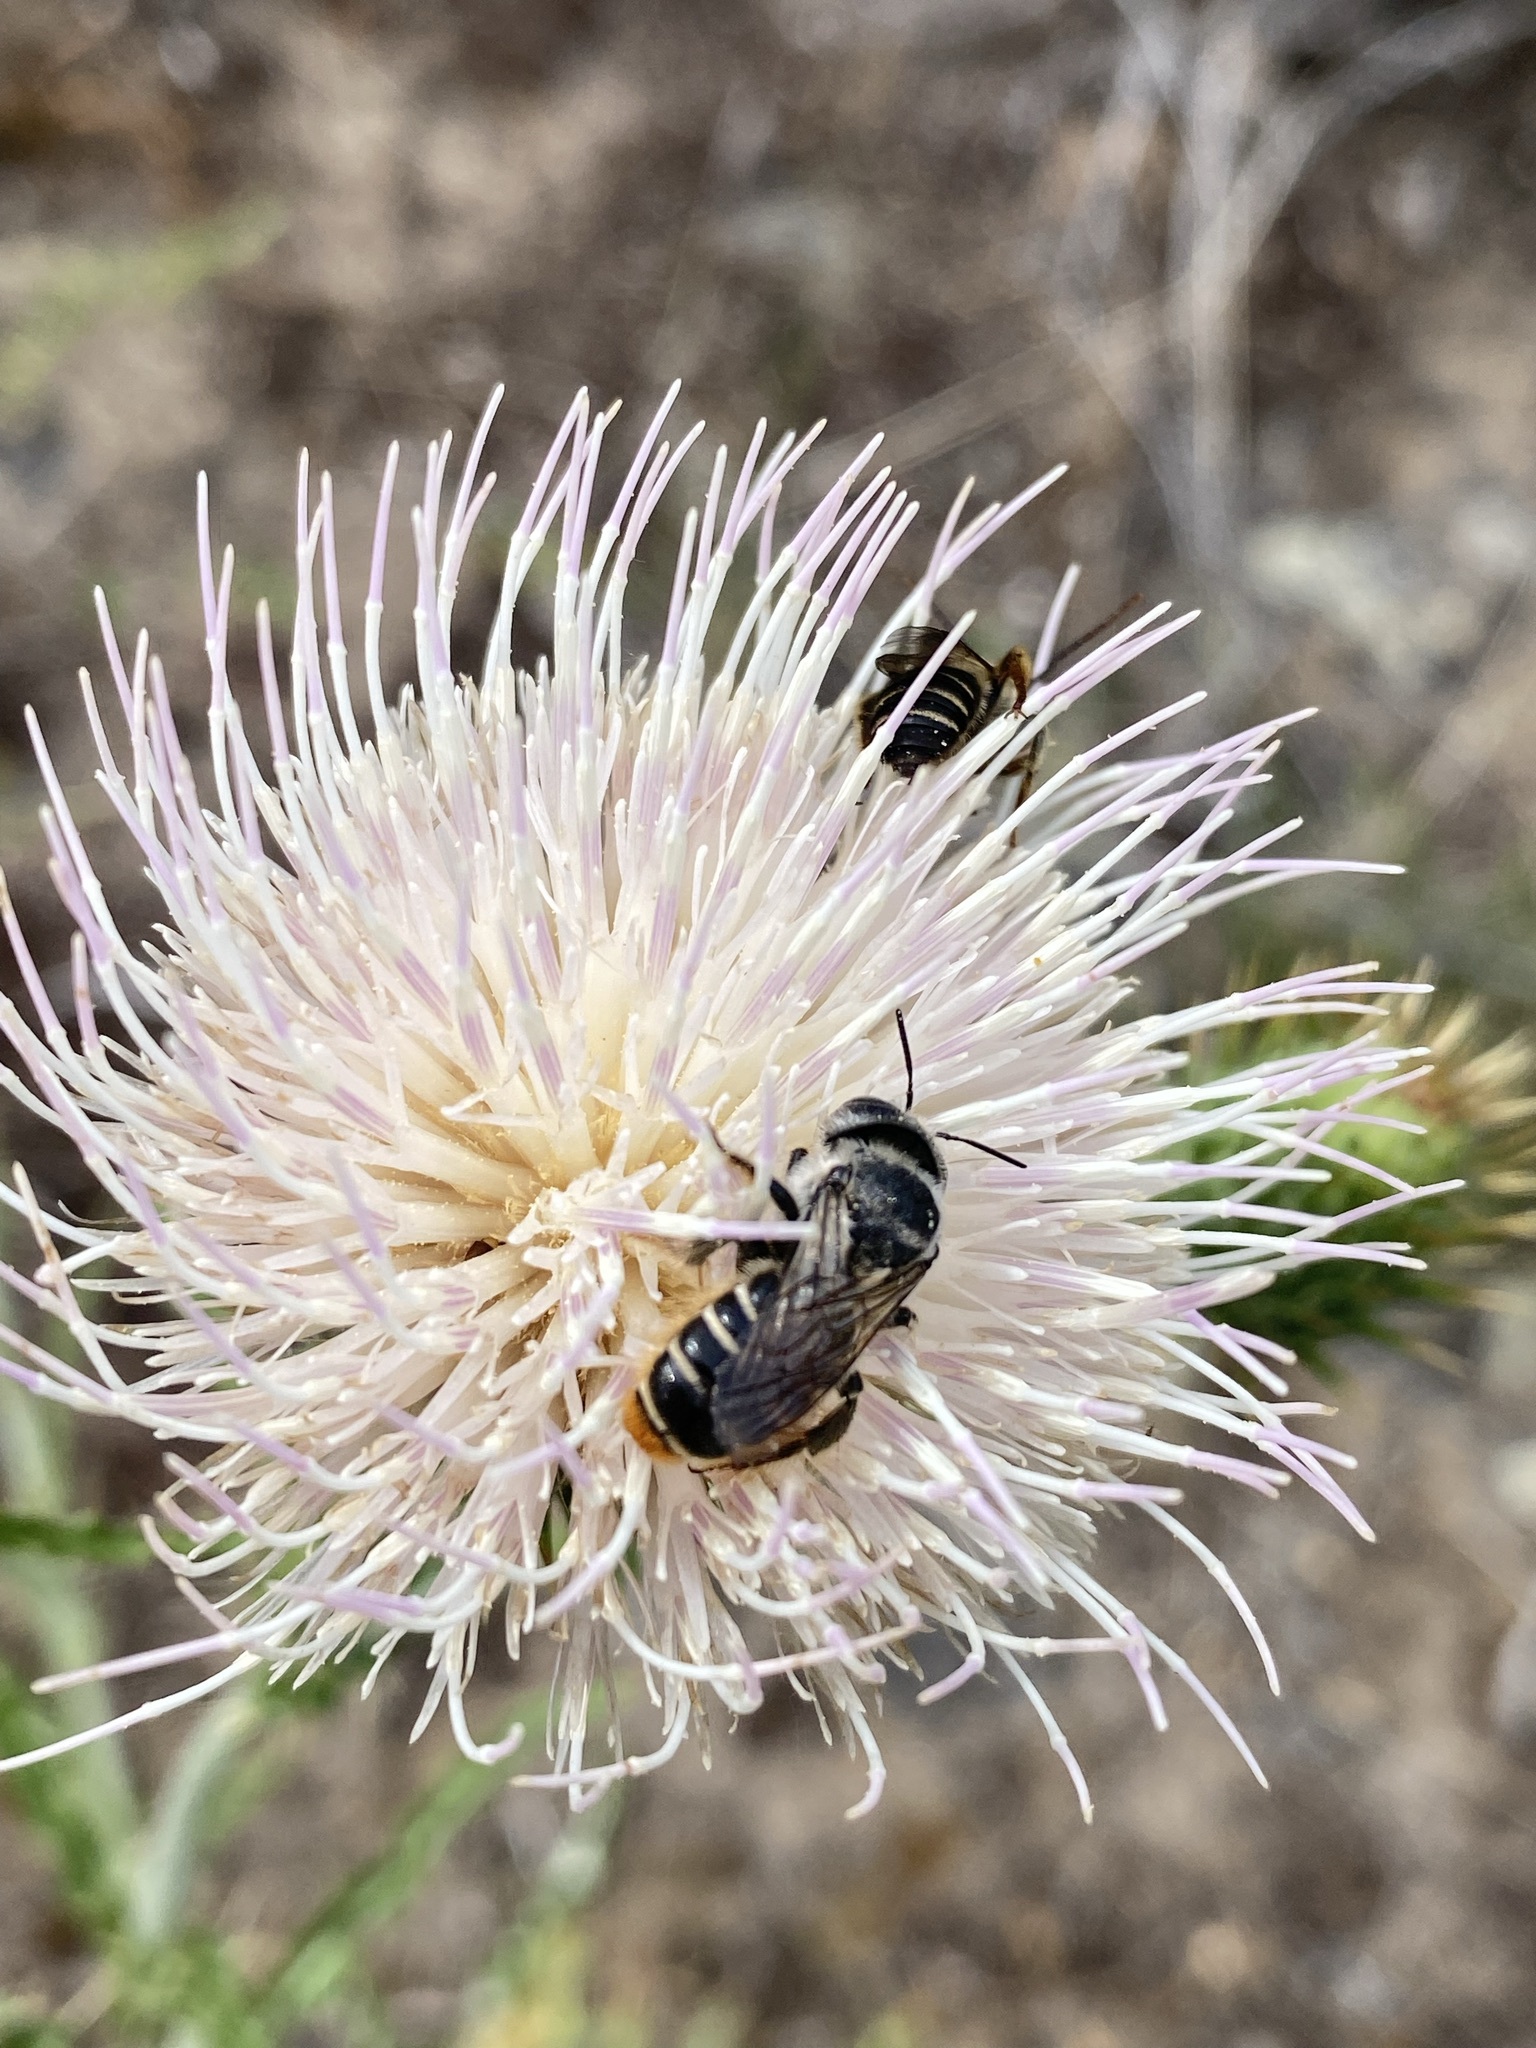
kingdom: Animalia
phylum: Arthropoda
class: Insecta
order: Hymenoptera
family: Megachilidae
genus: Lithurgopsis
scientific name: Lithurgopsis apicalis
